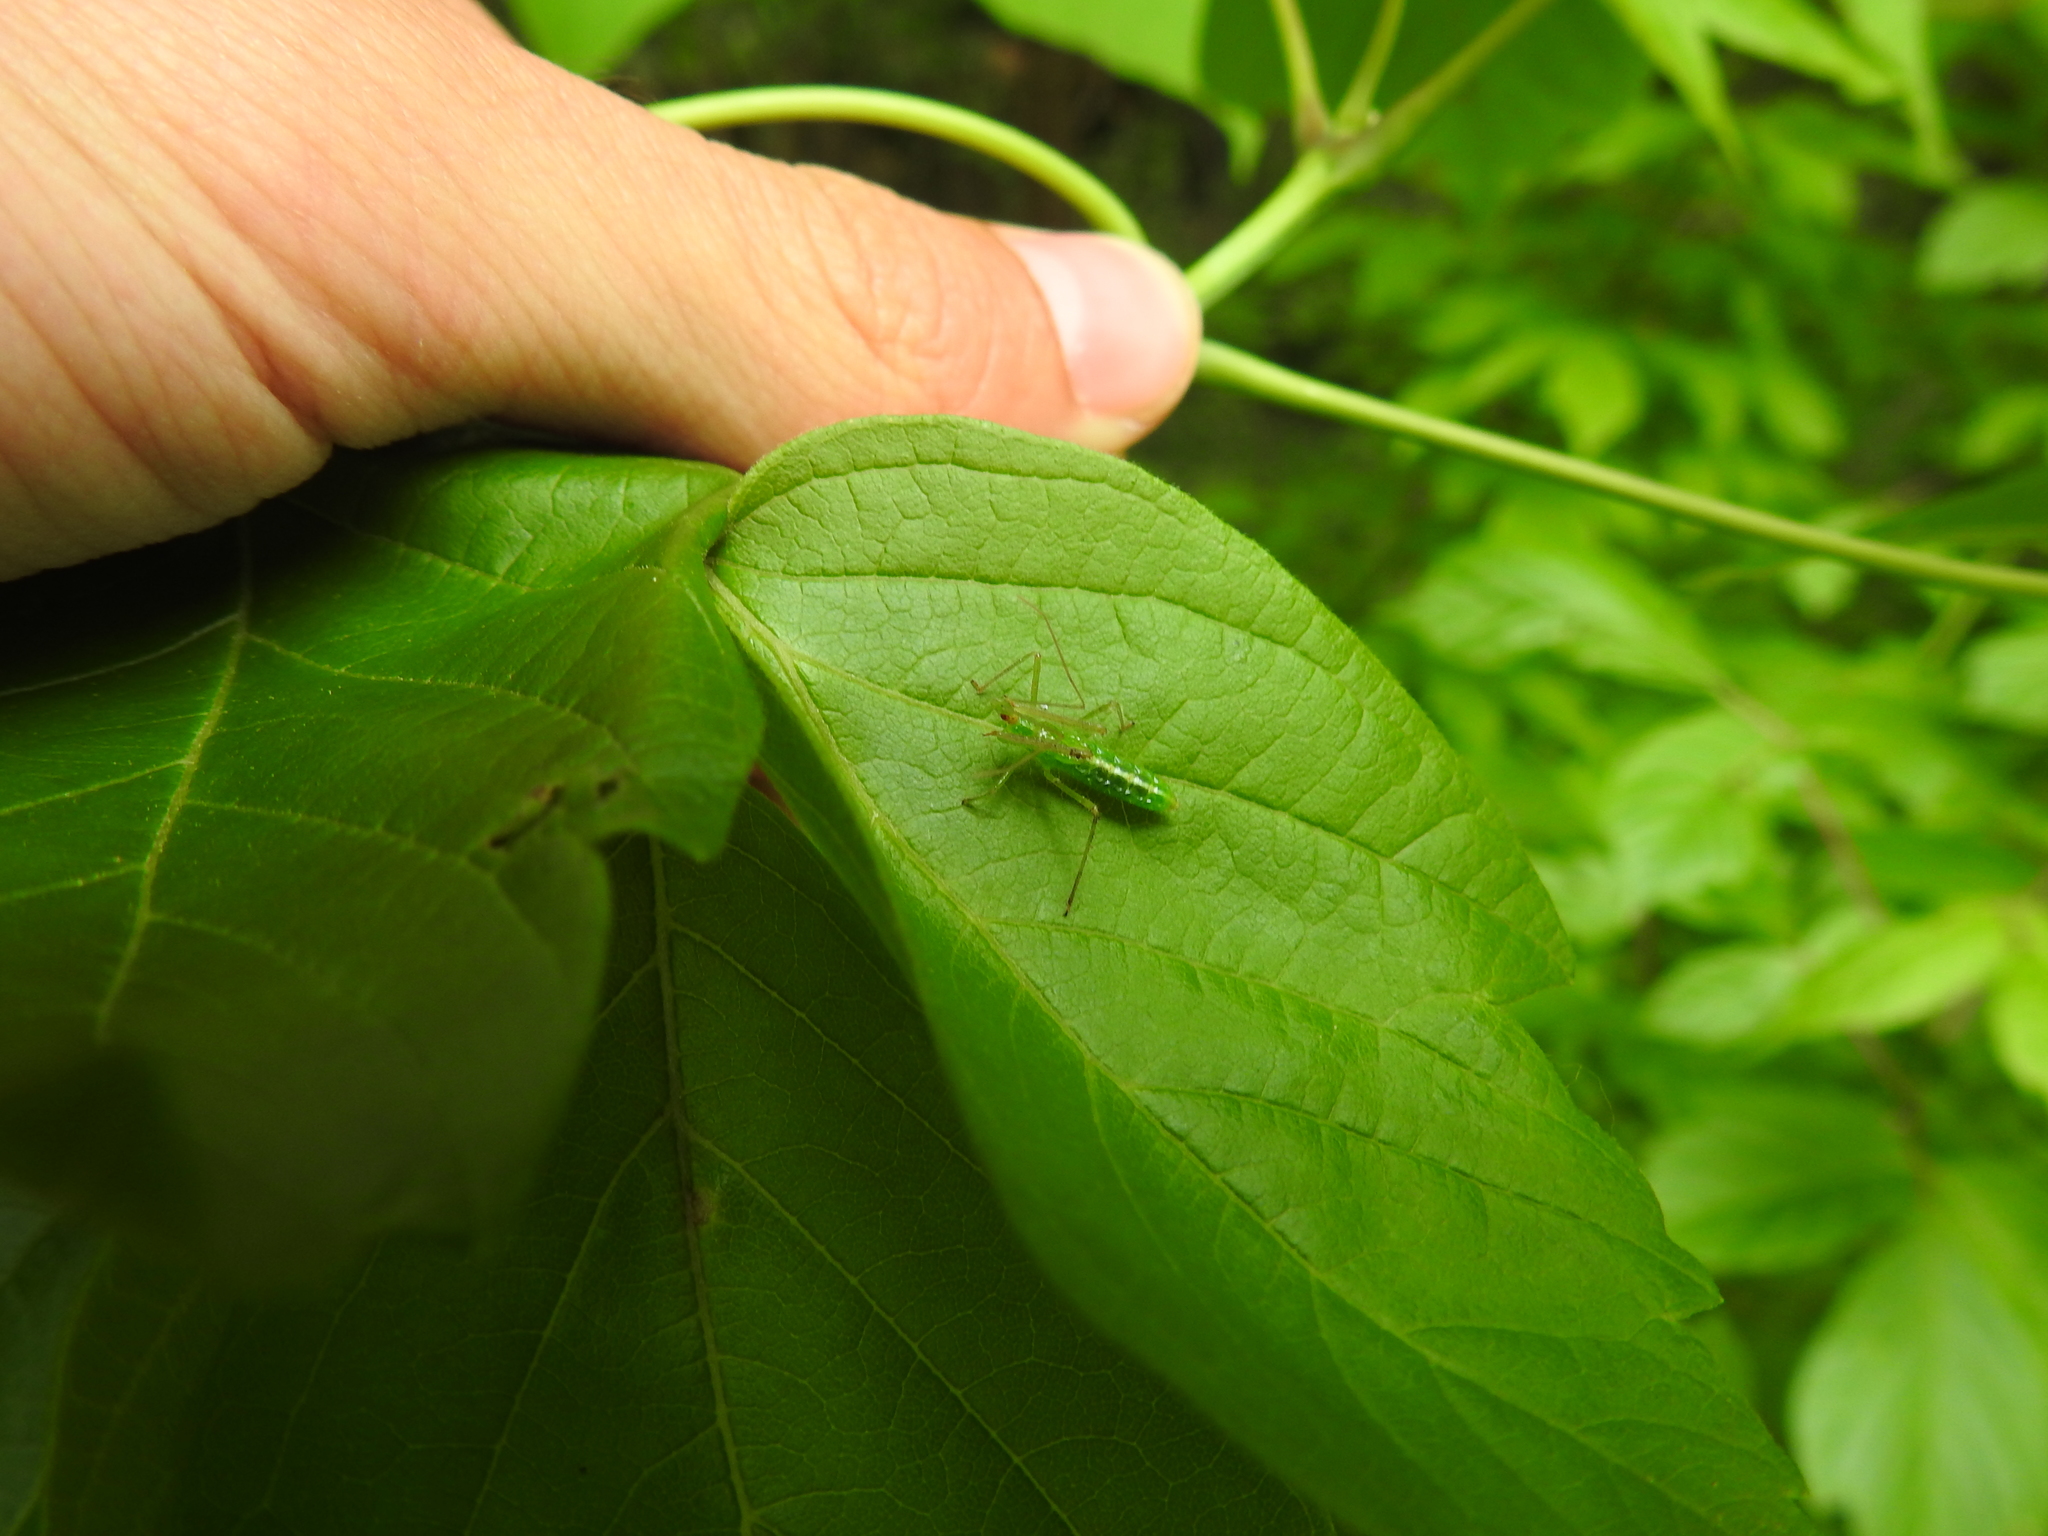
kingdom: Animalia
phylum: Arthropoda
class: Insecta
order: Hemiptera
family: Reduviidae
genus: Zelus
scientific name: Zelus luridus
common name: Pale green assassin bug
